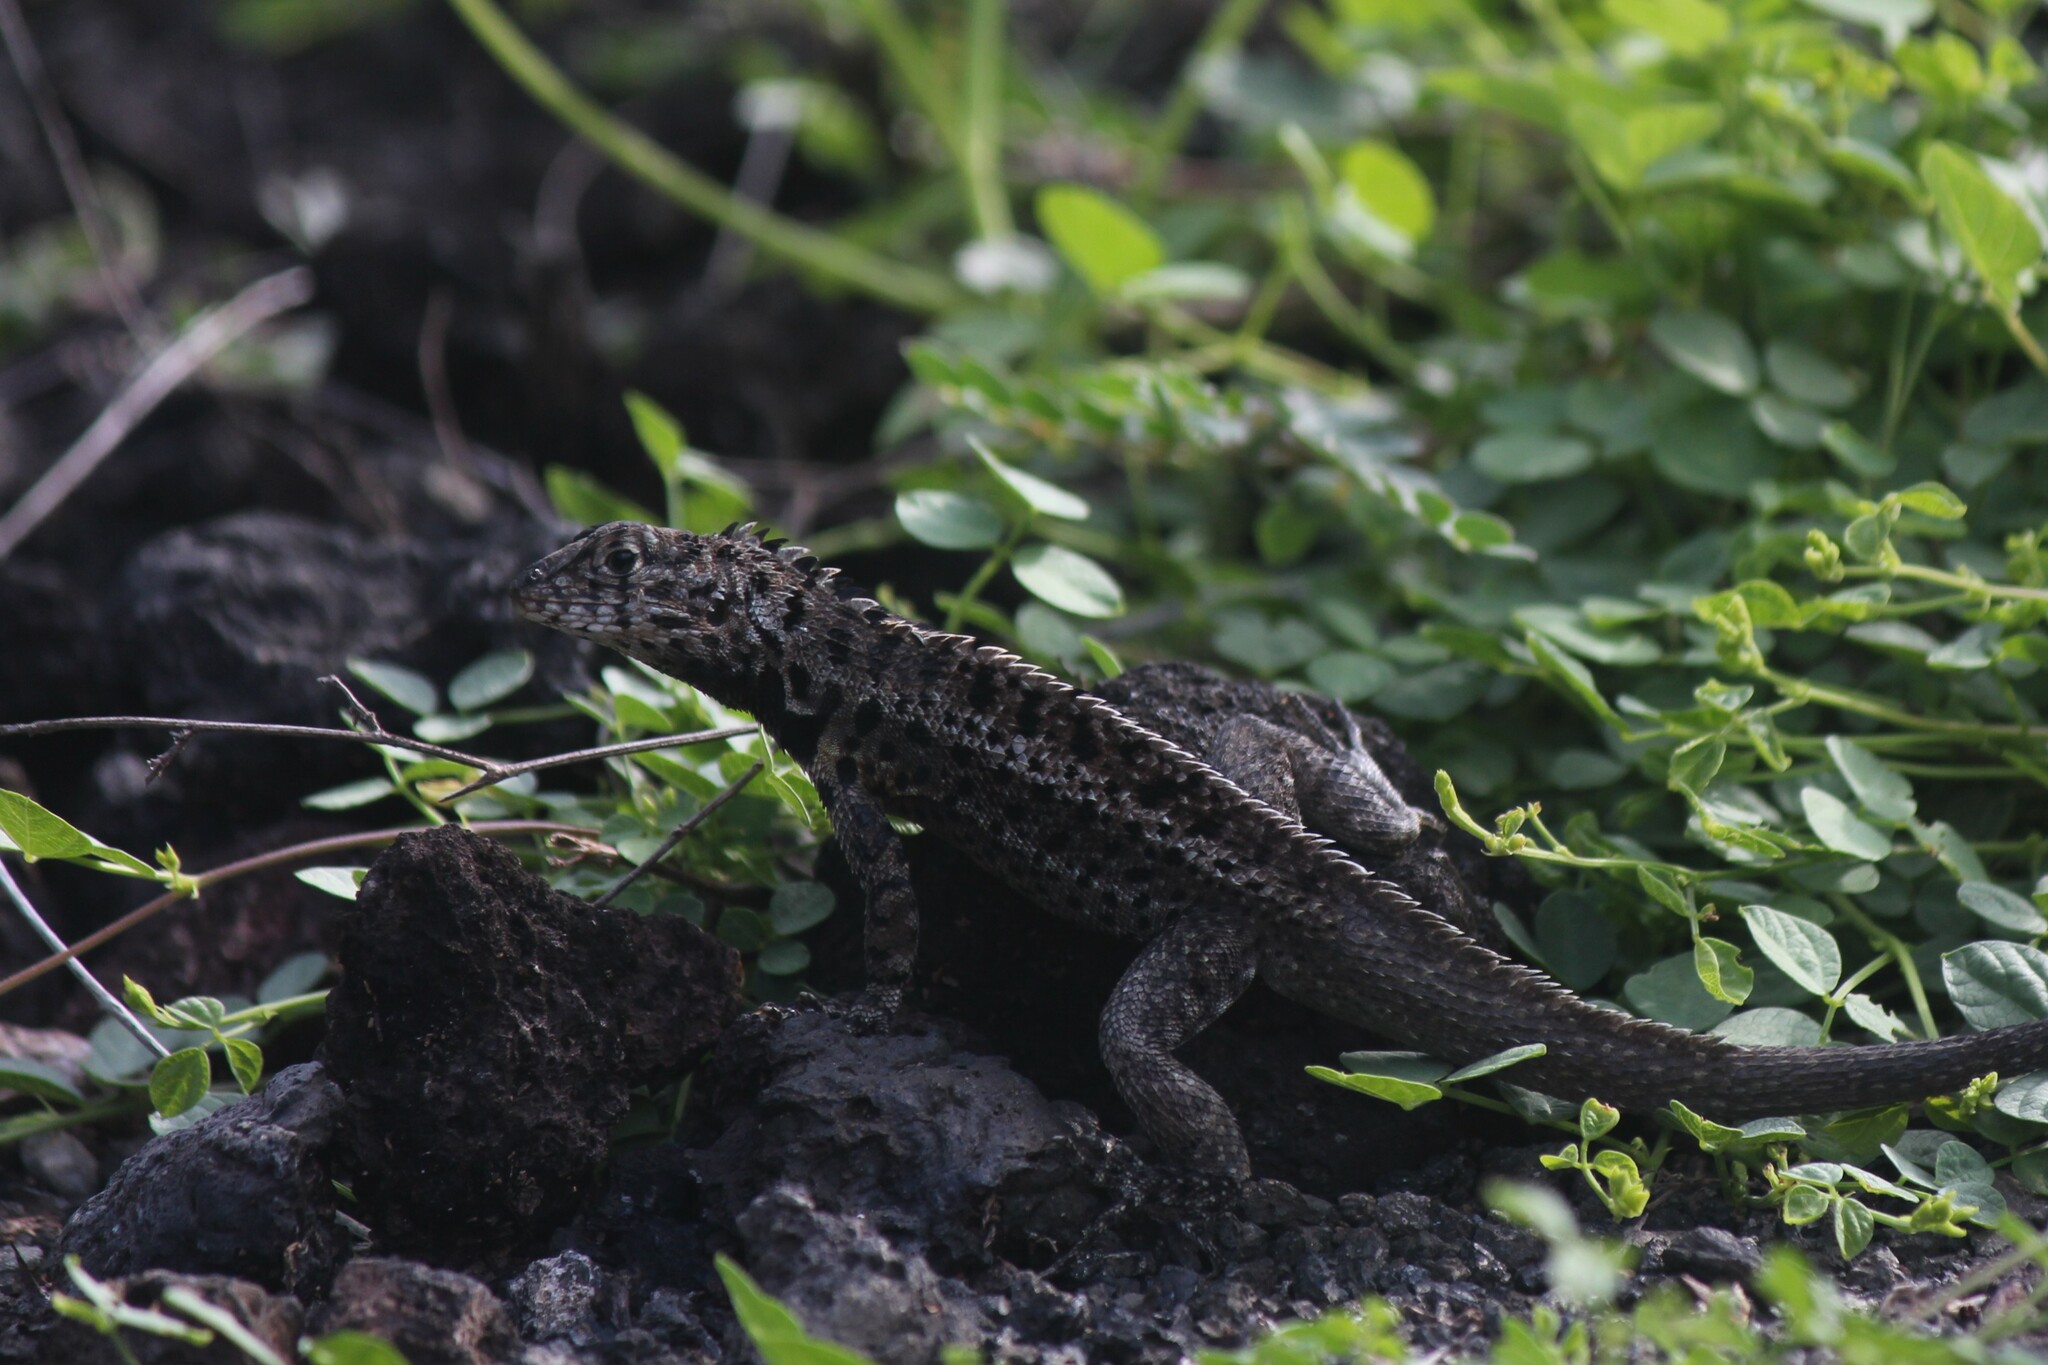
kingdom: Animalia
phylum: Chordata
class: Squamata
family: Tropiduridae
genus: Microlophus
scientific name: Microlophus albemarlensis
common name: Galapagos lava lizard
